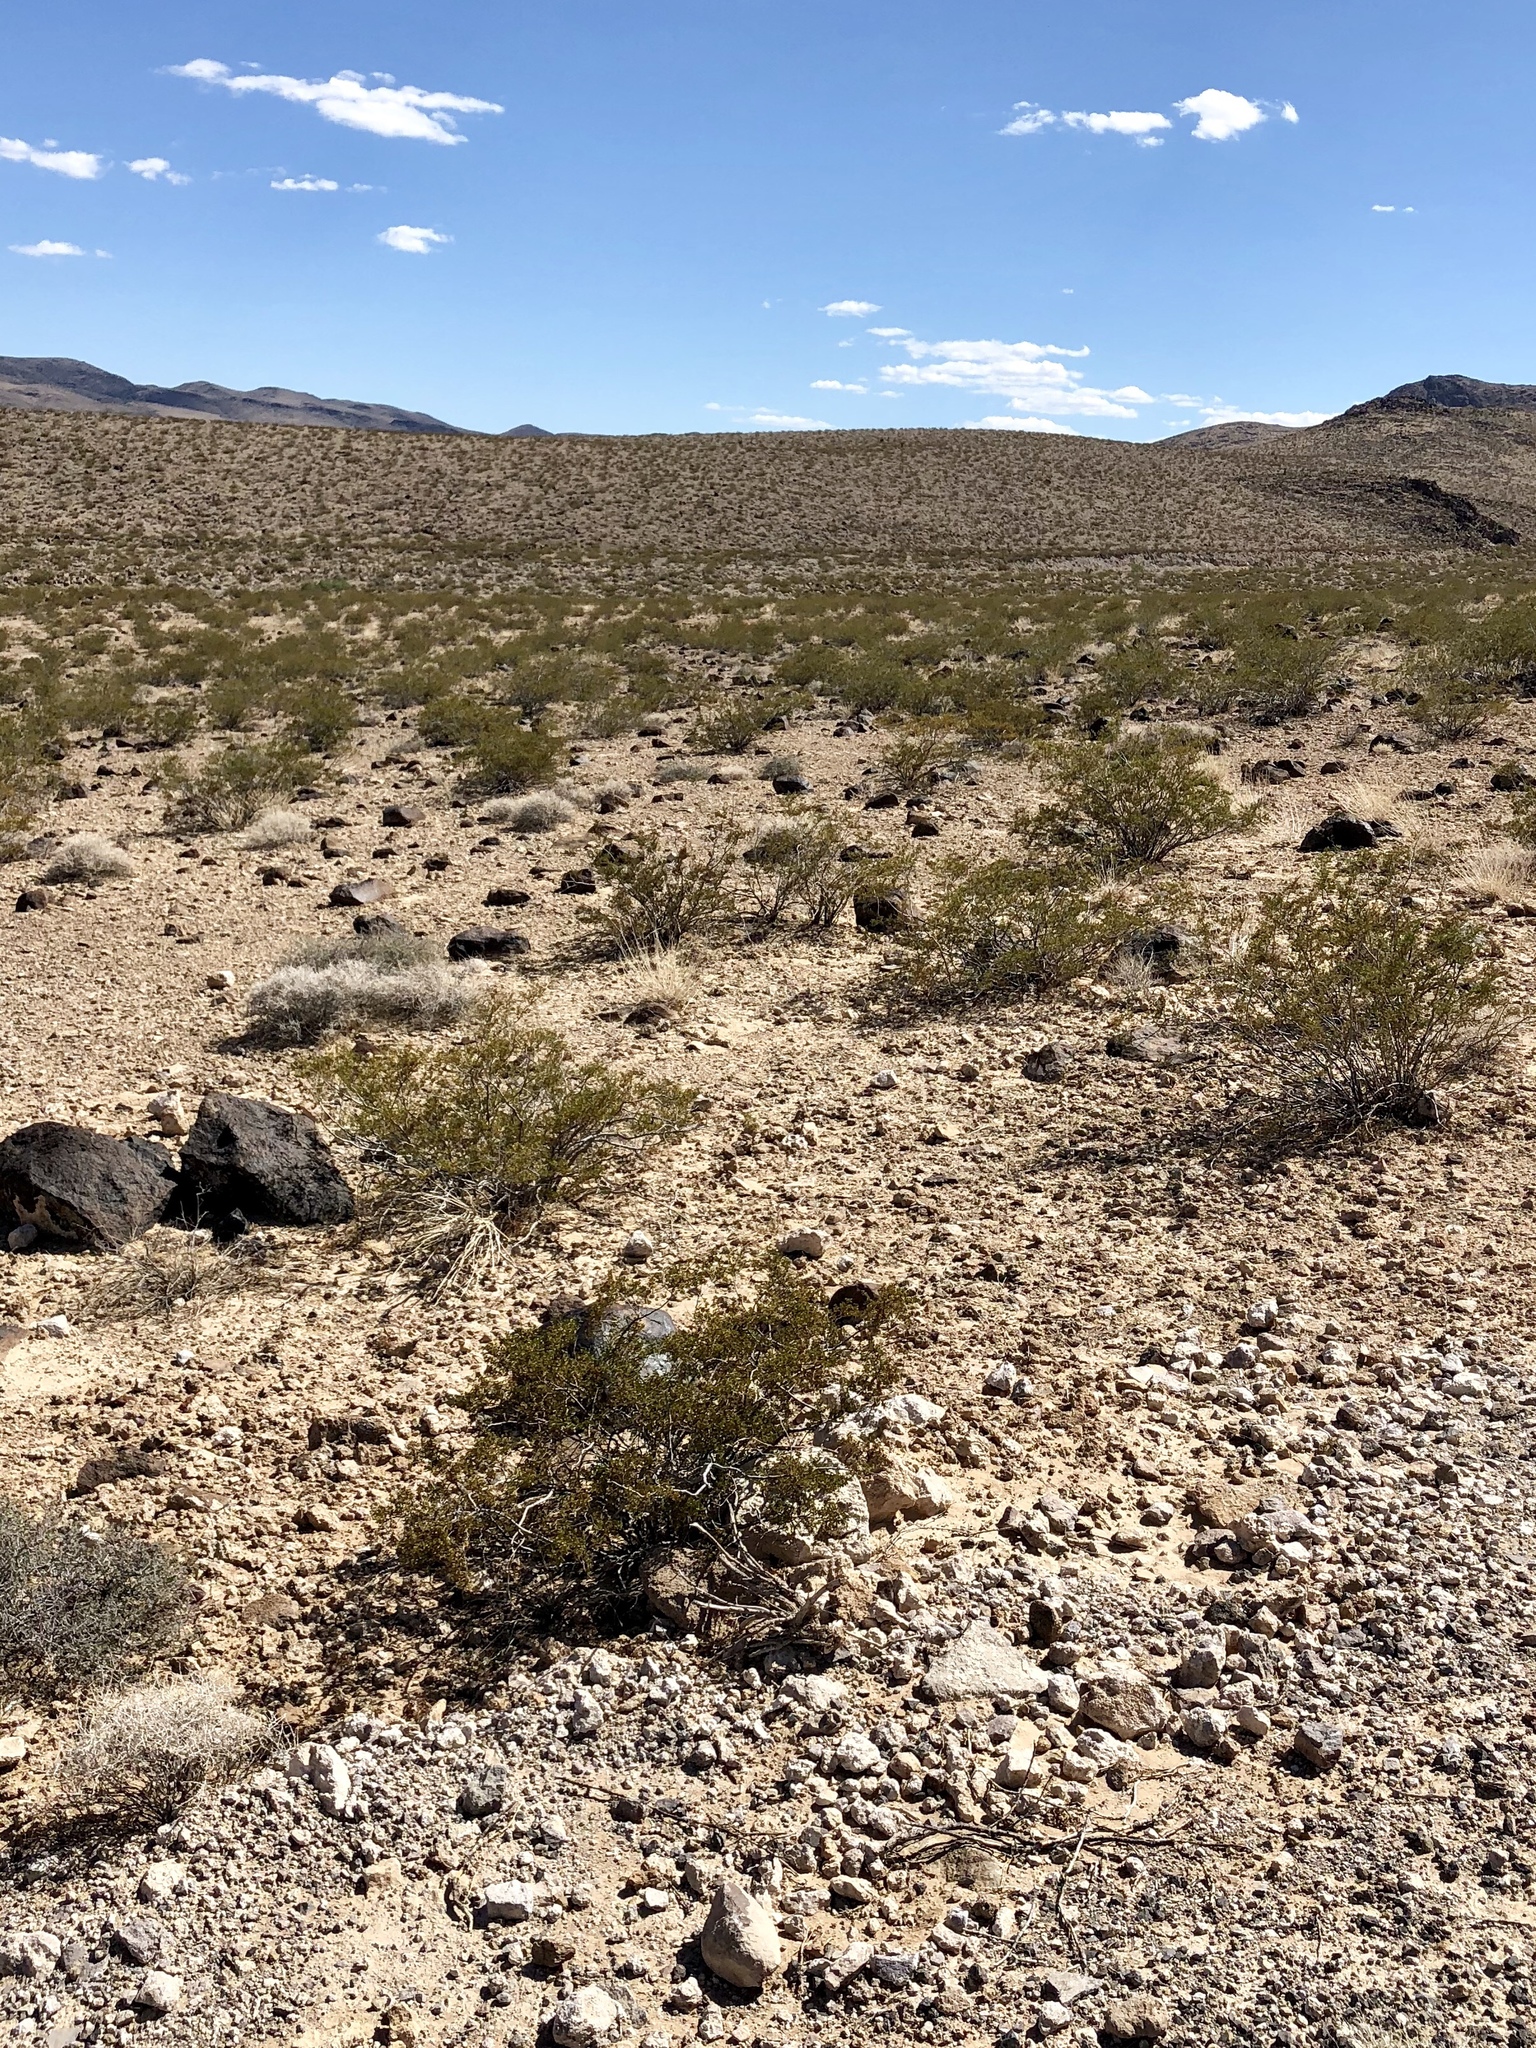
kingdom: Plantae
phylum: Tracheophyta
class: Magnoliopsida
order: Zygophyllales
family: Zygophyllaceae
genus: Larrea
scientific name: Larrea tridentata
